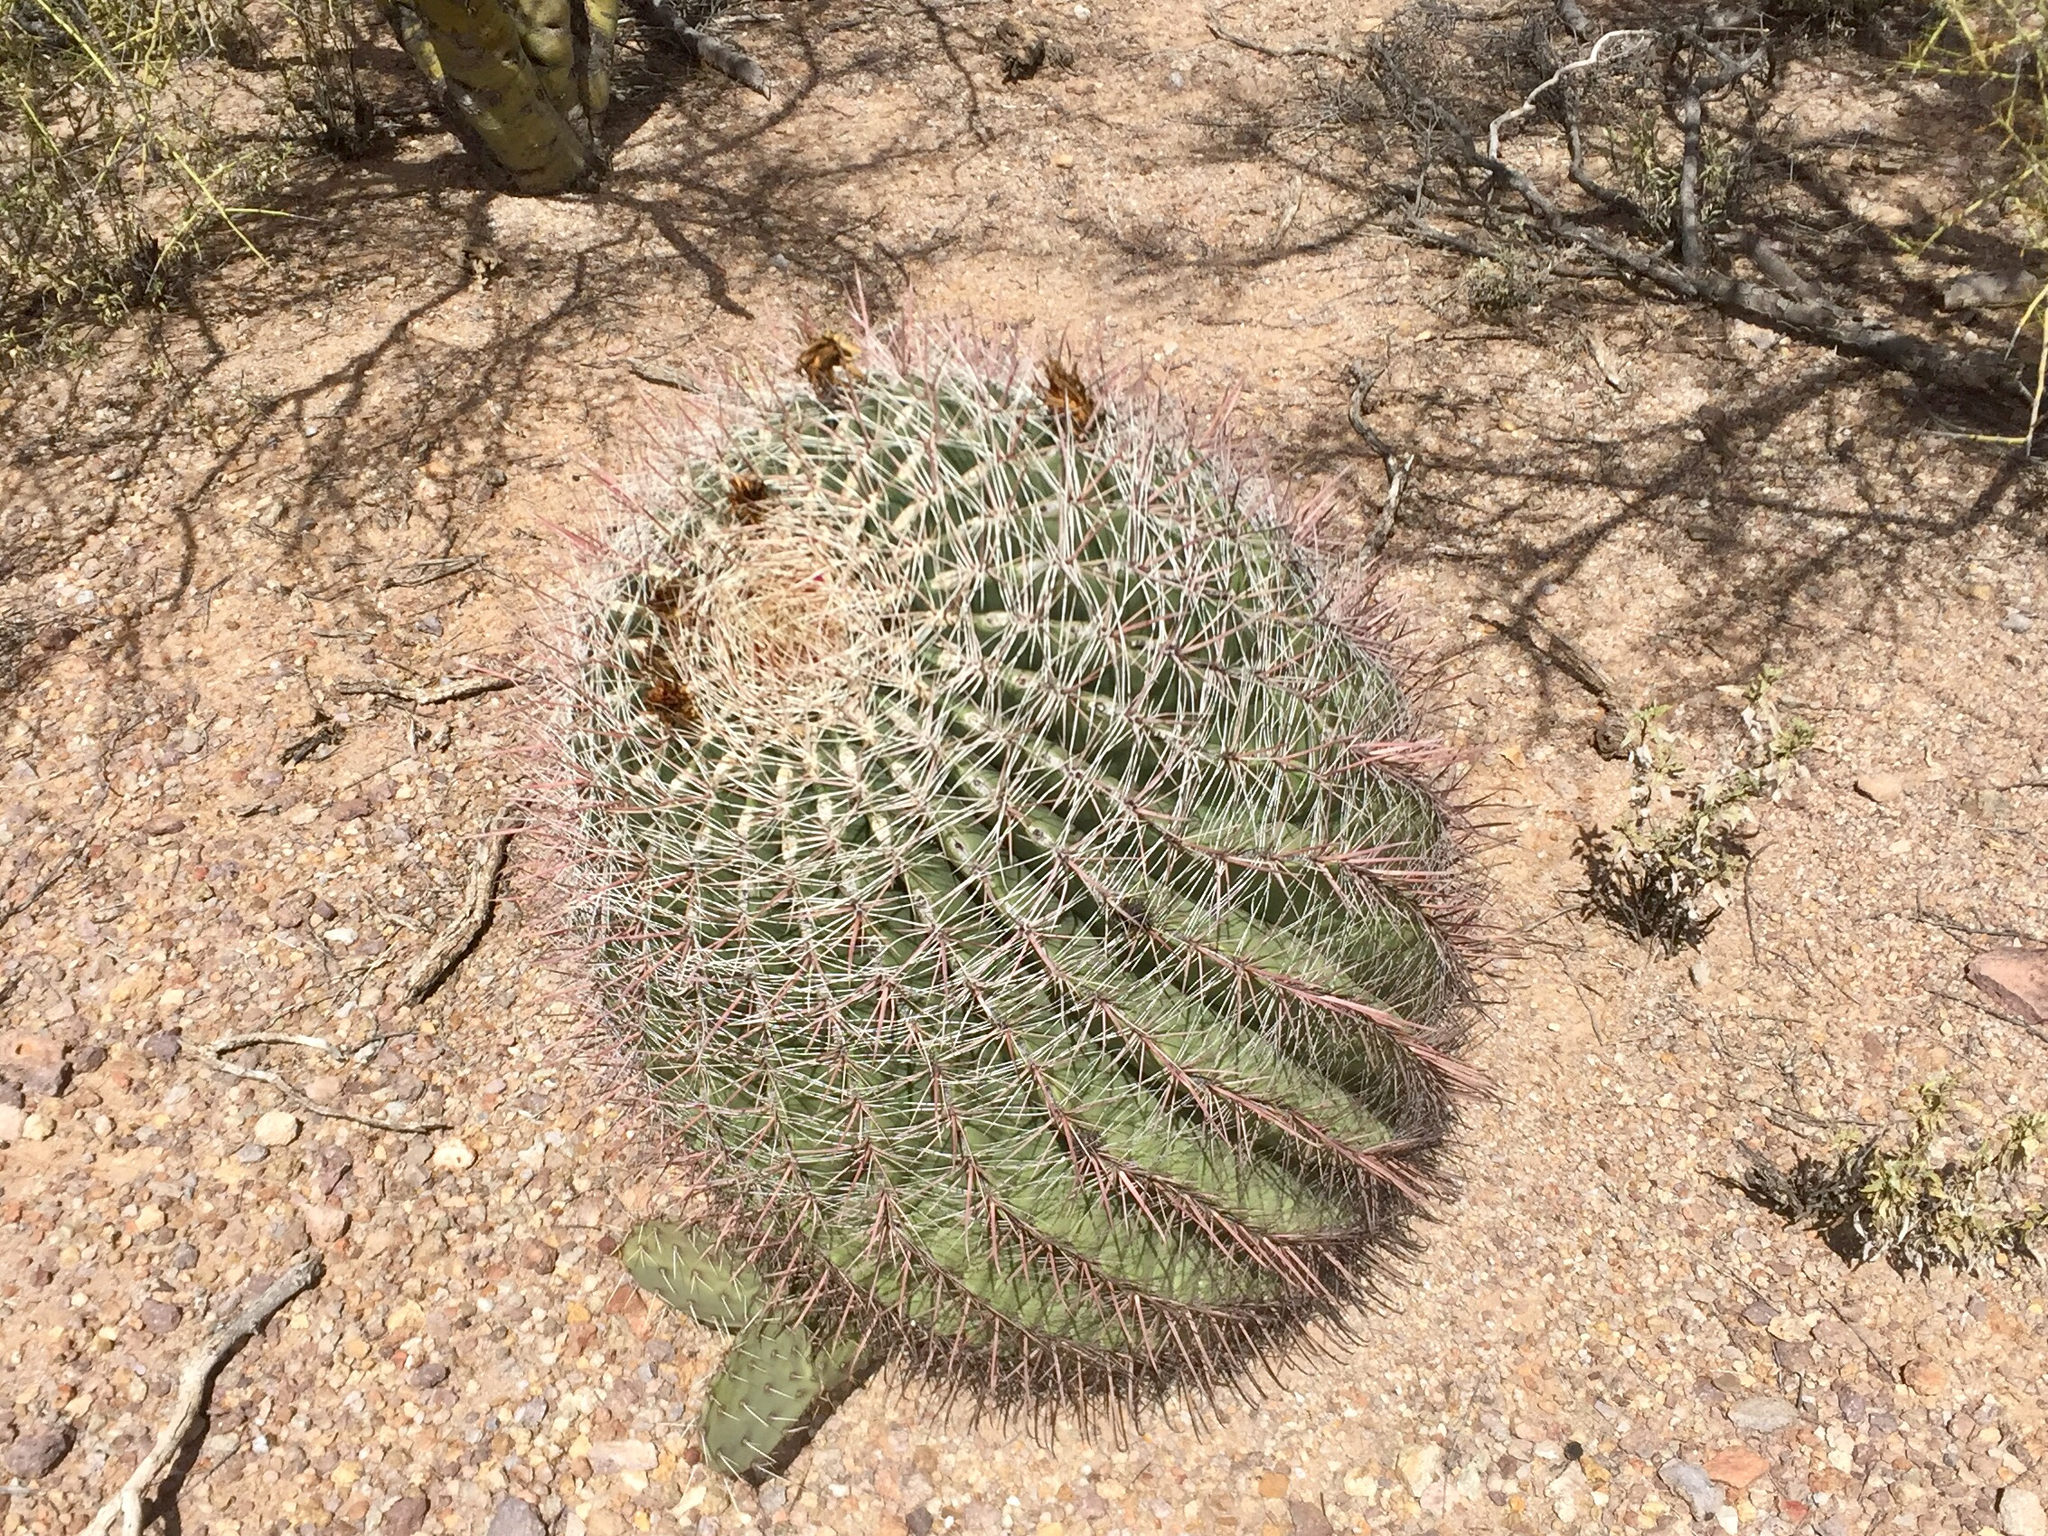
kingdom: Plantae
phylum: Tracheophyta
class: Magnoliopsida
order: Caryophyllales
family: Cactaceae
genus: Ferocactus
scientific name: Ferocactus wislizeni
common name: Candy barrel cactus
